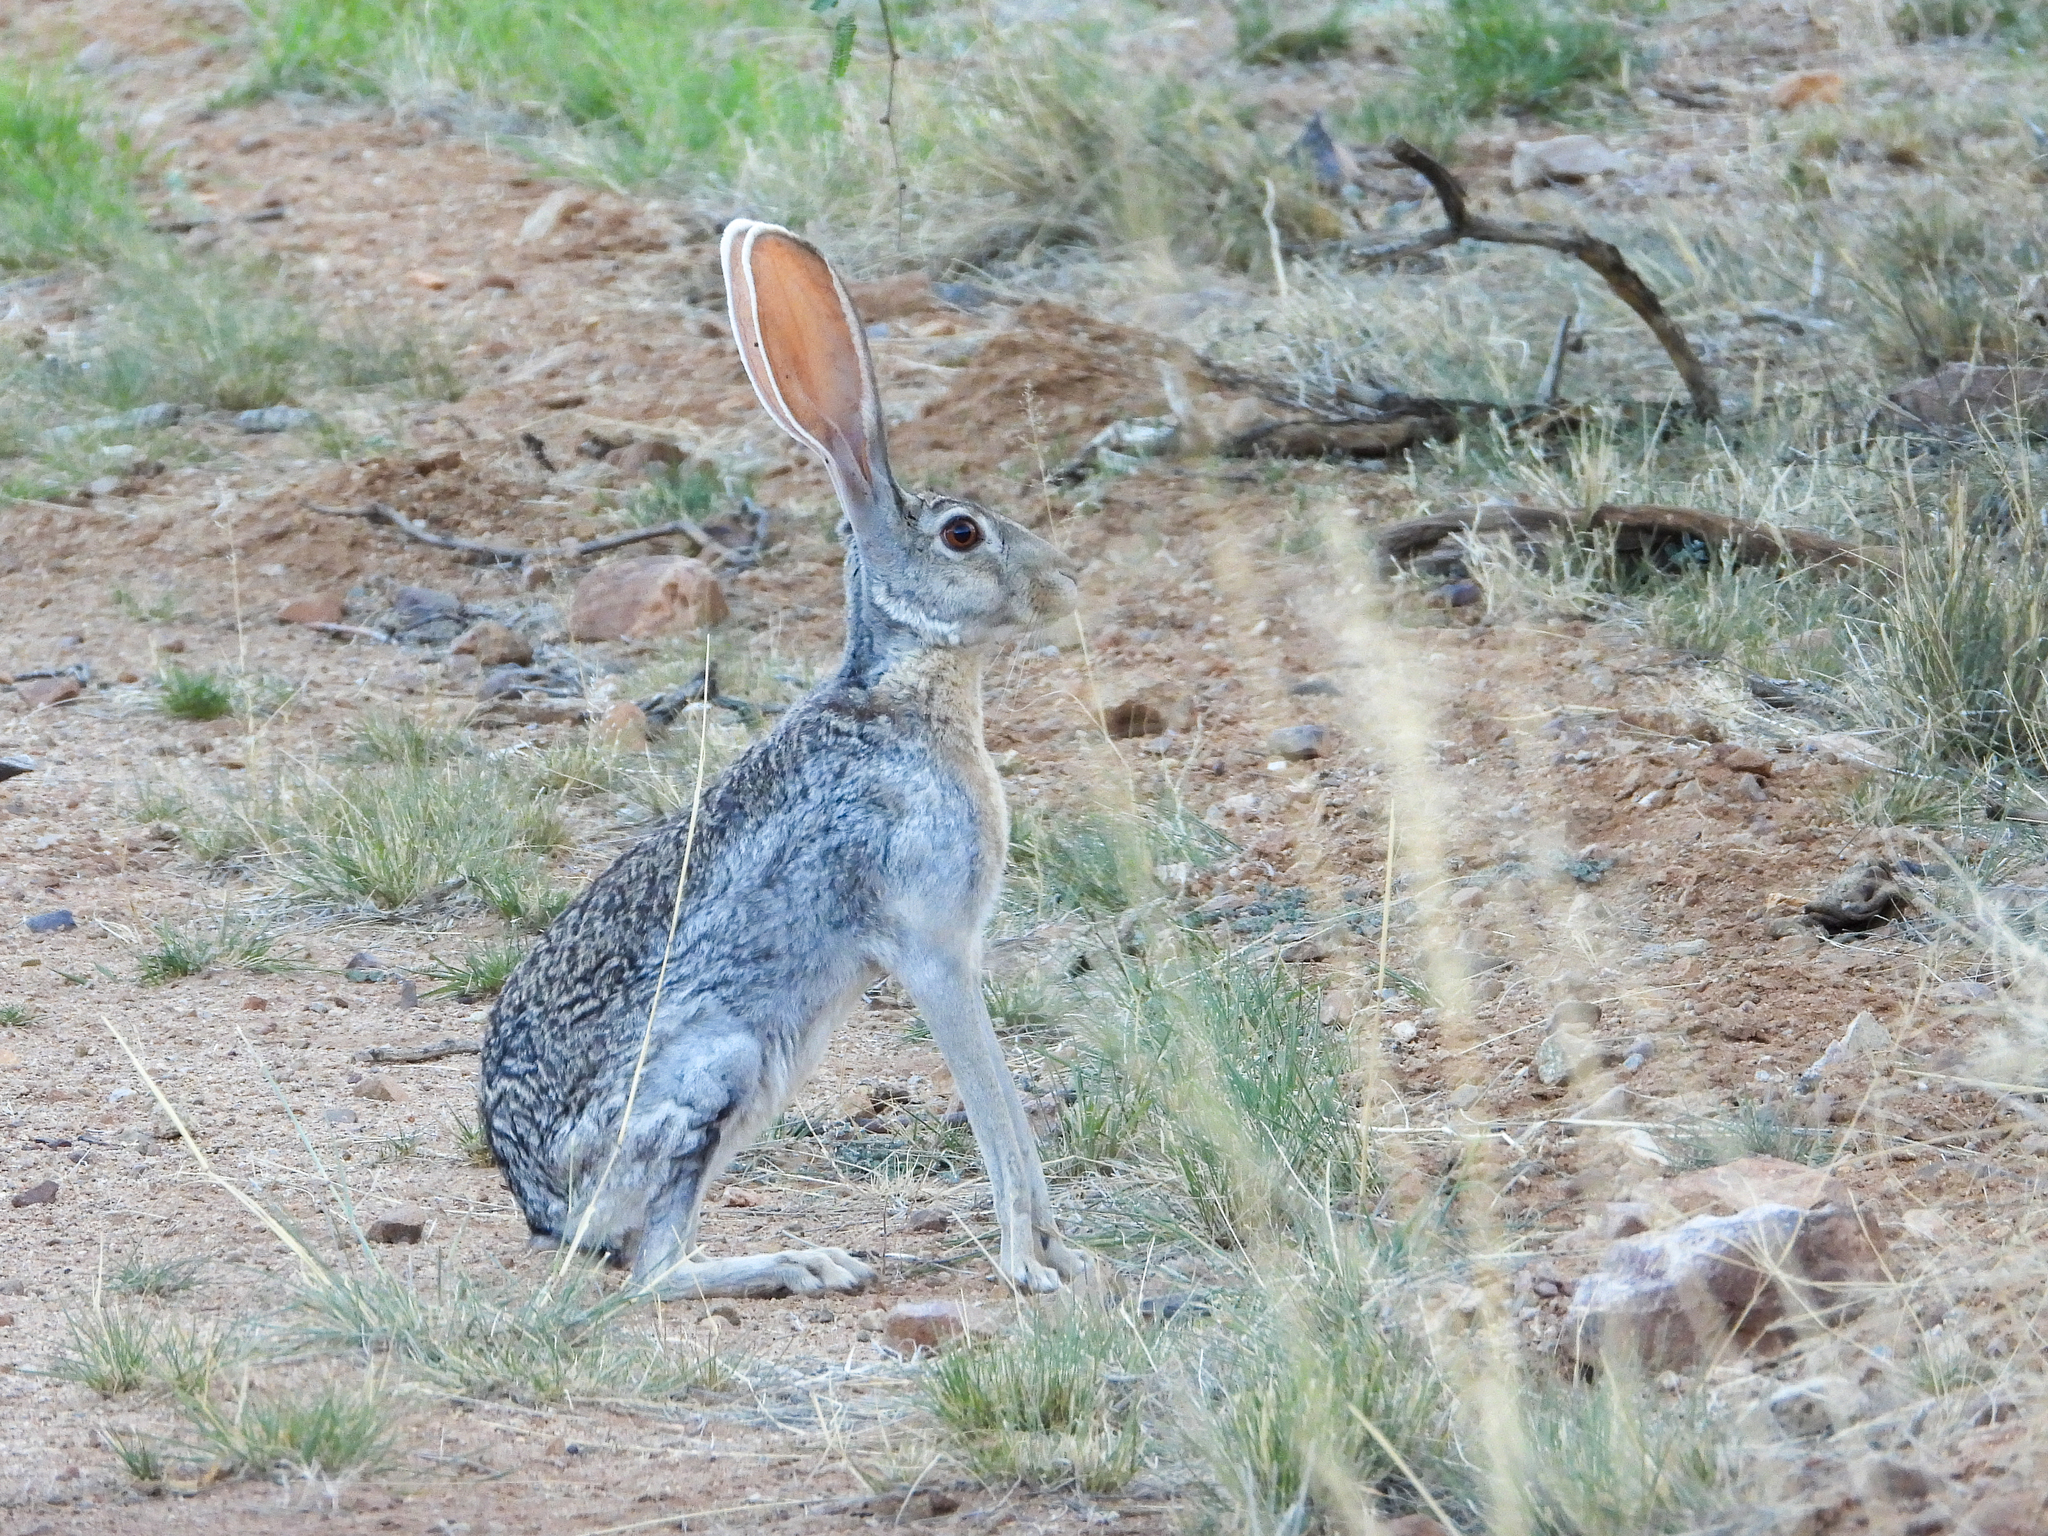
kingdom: Animalia
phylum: Chordata
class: Mammalia
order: Lagomorpha
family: Leporidae
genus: Lepus
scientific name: Lepus alleni
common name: Antelope jackrabbit
